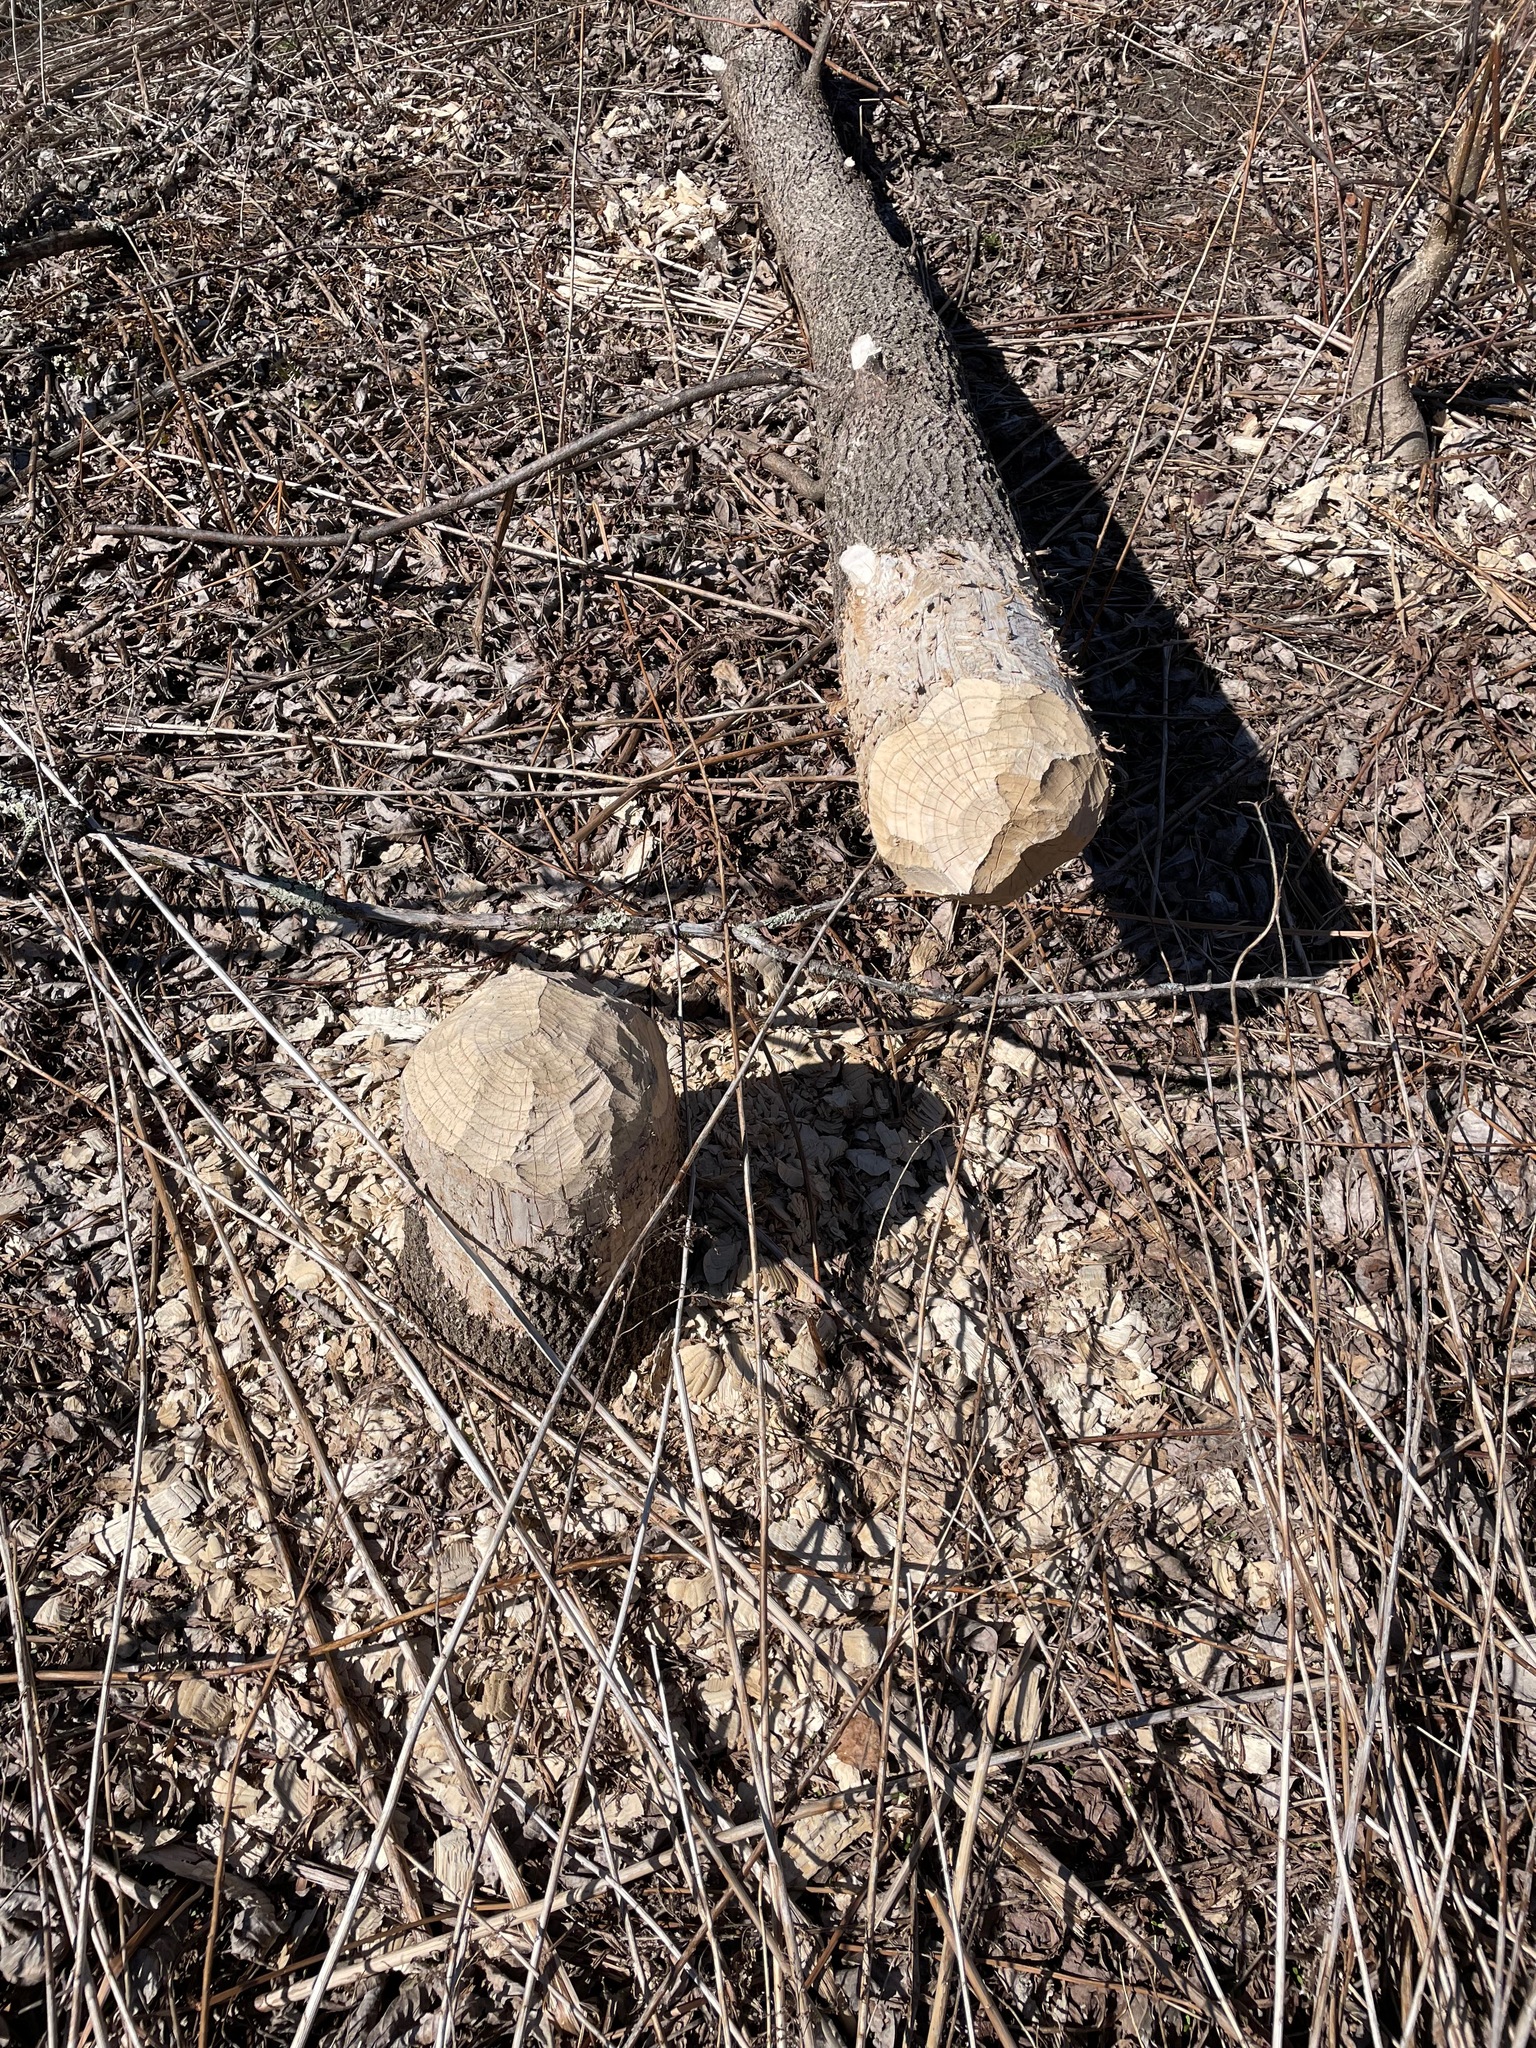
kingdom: Animalia
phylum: Chordata
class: Mammalia
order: Rodentia
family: Castoridae
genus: Castor
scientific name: Castor canadensis
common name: American beaver
